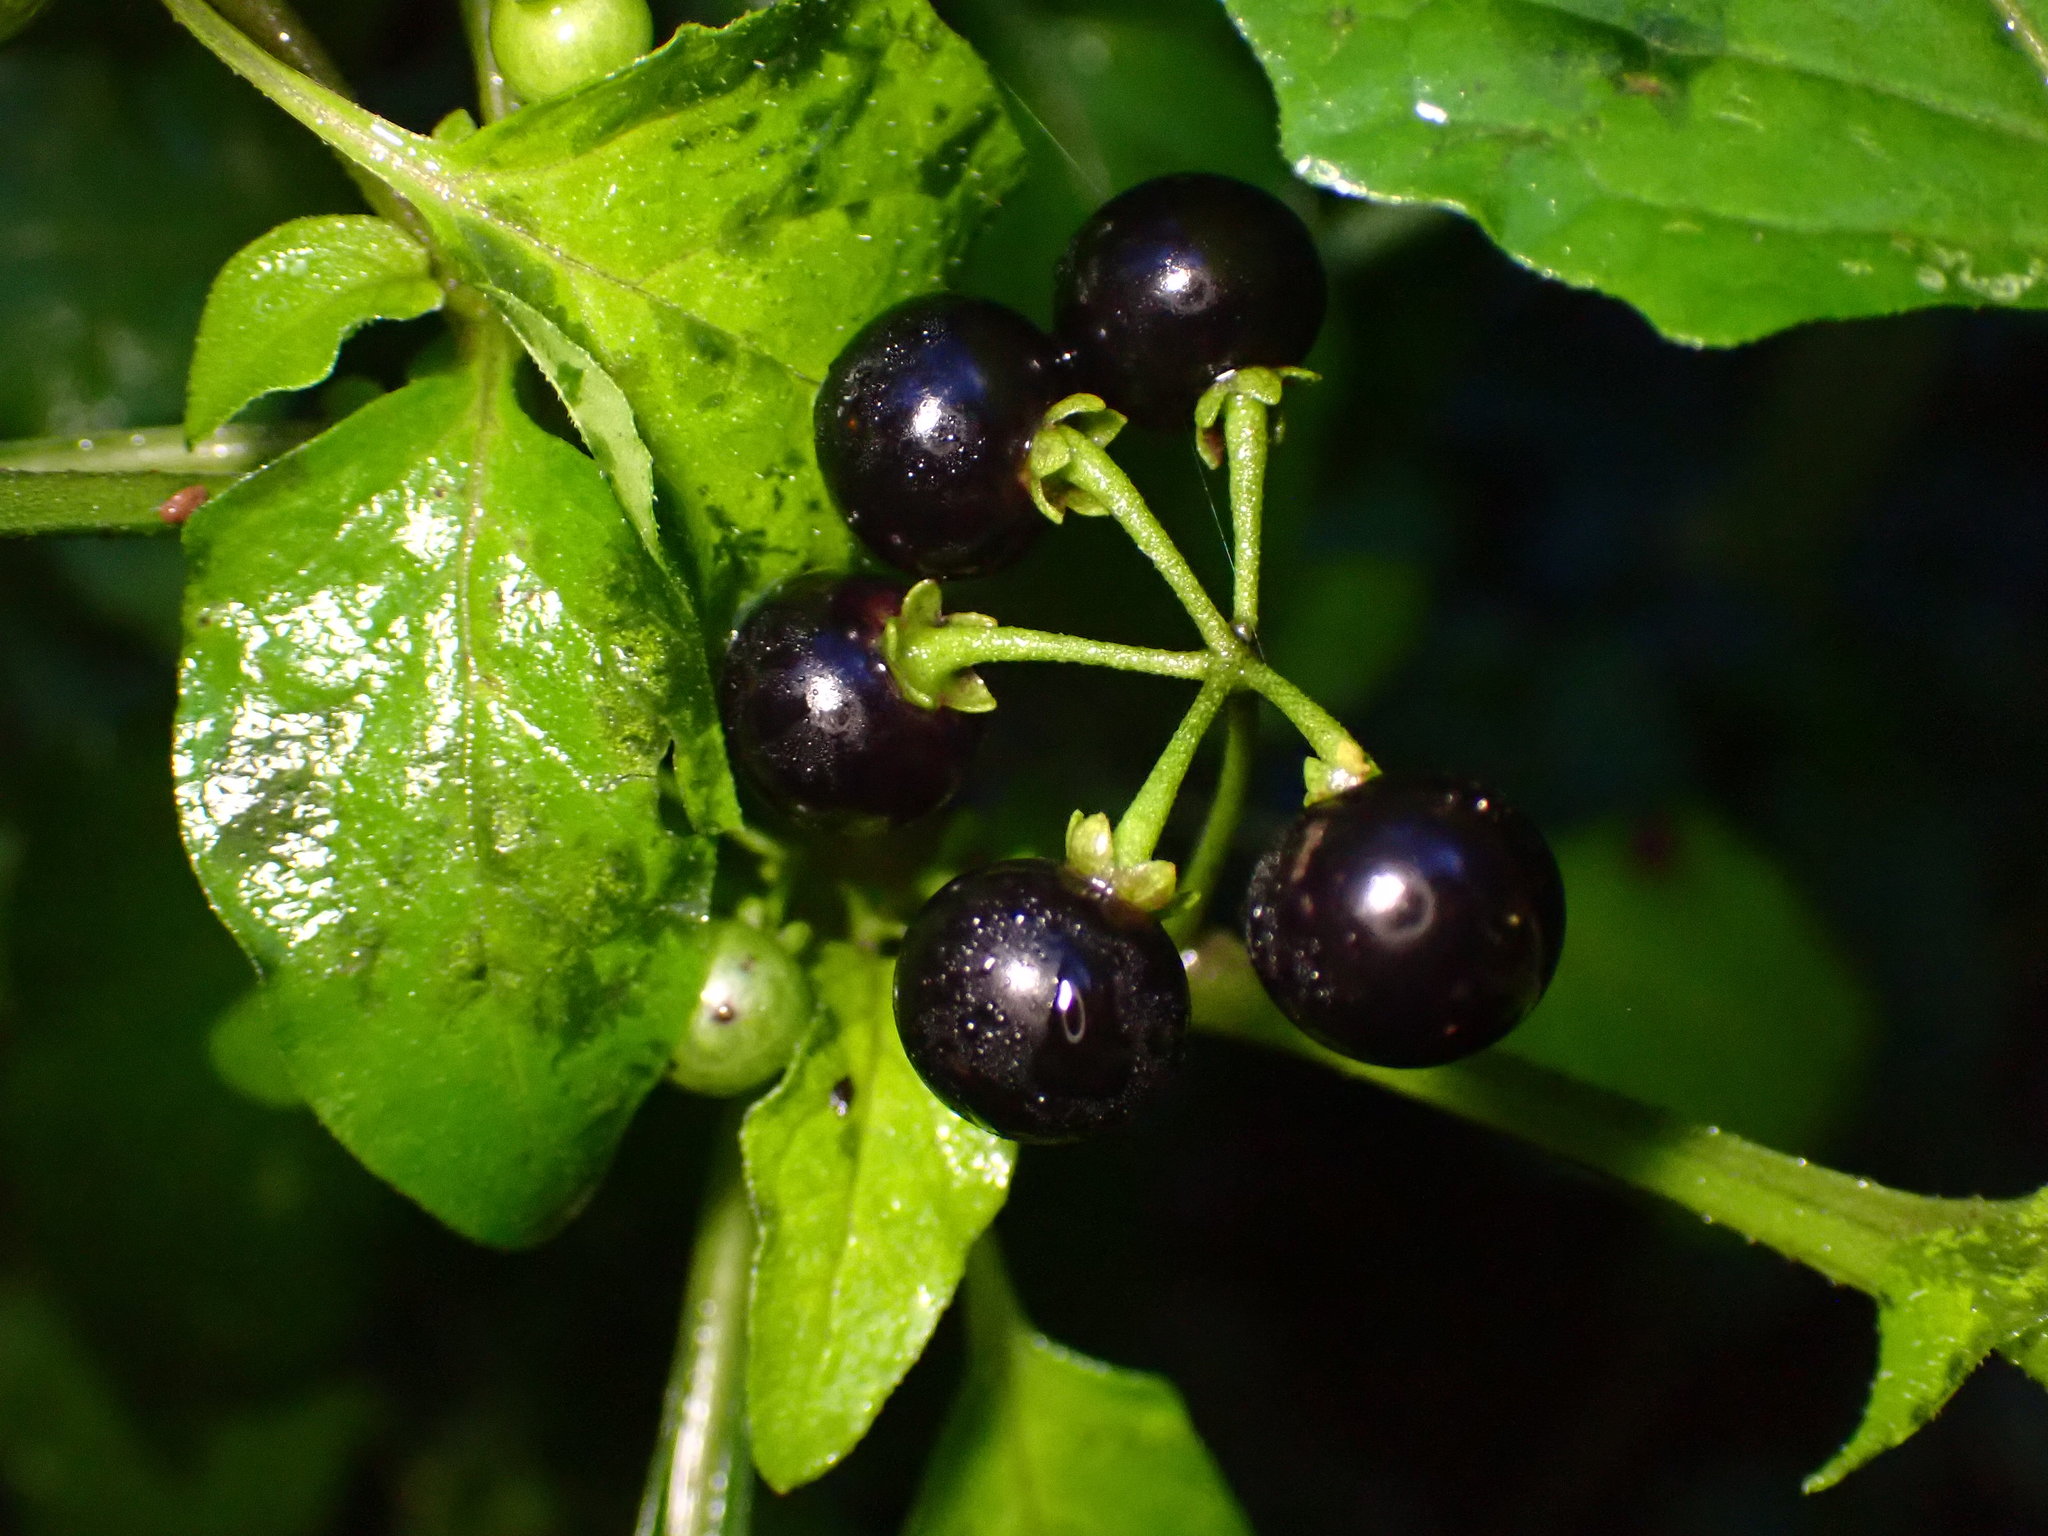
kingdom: Plantae
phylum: Tracheophyta
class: Magnoliopsida
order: Solanales
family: Solanaceae
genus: Solanum
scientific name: Solanum americanum
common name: American black nightshade
